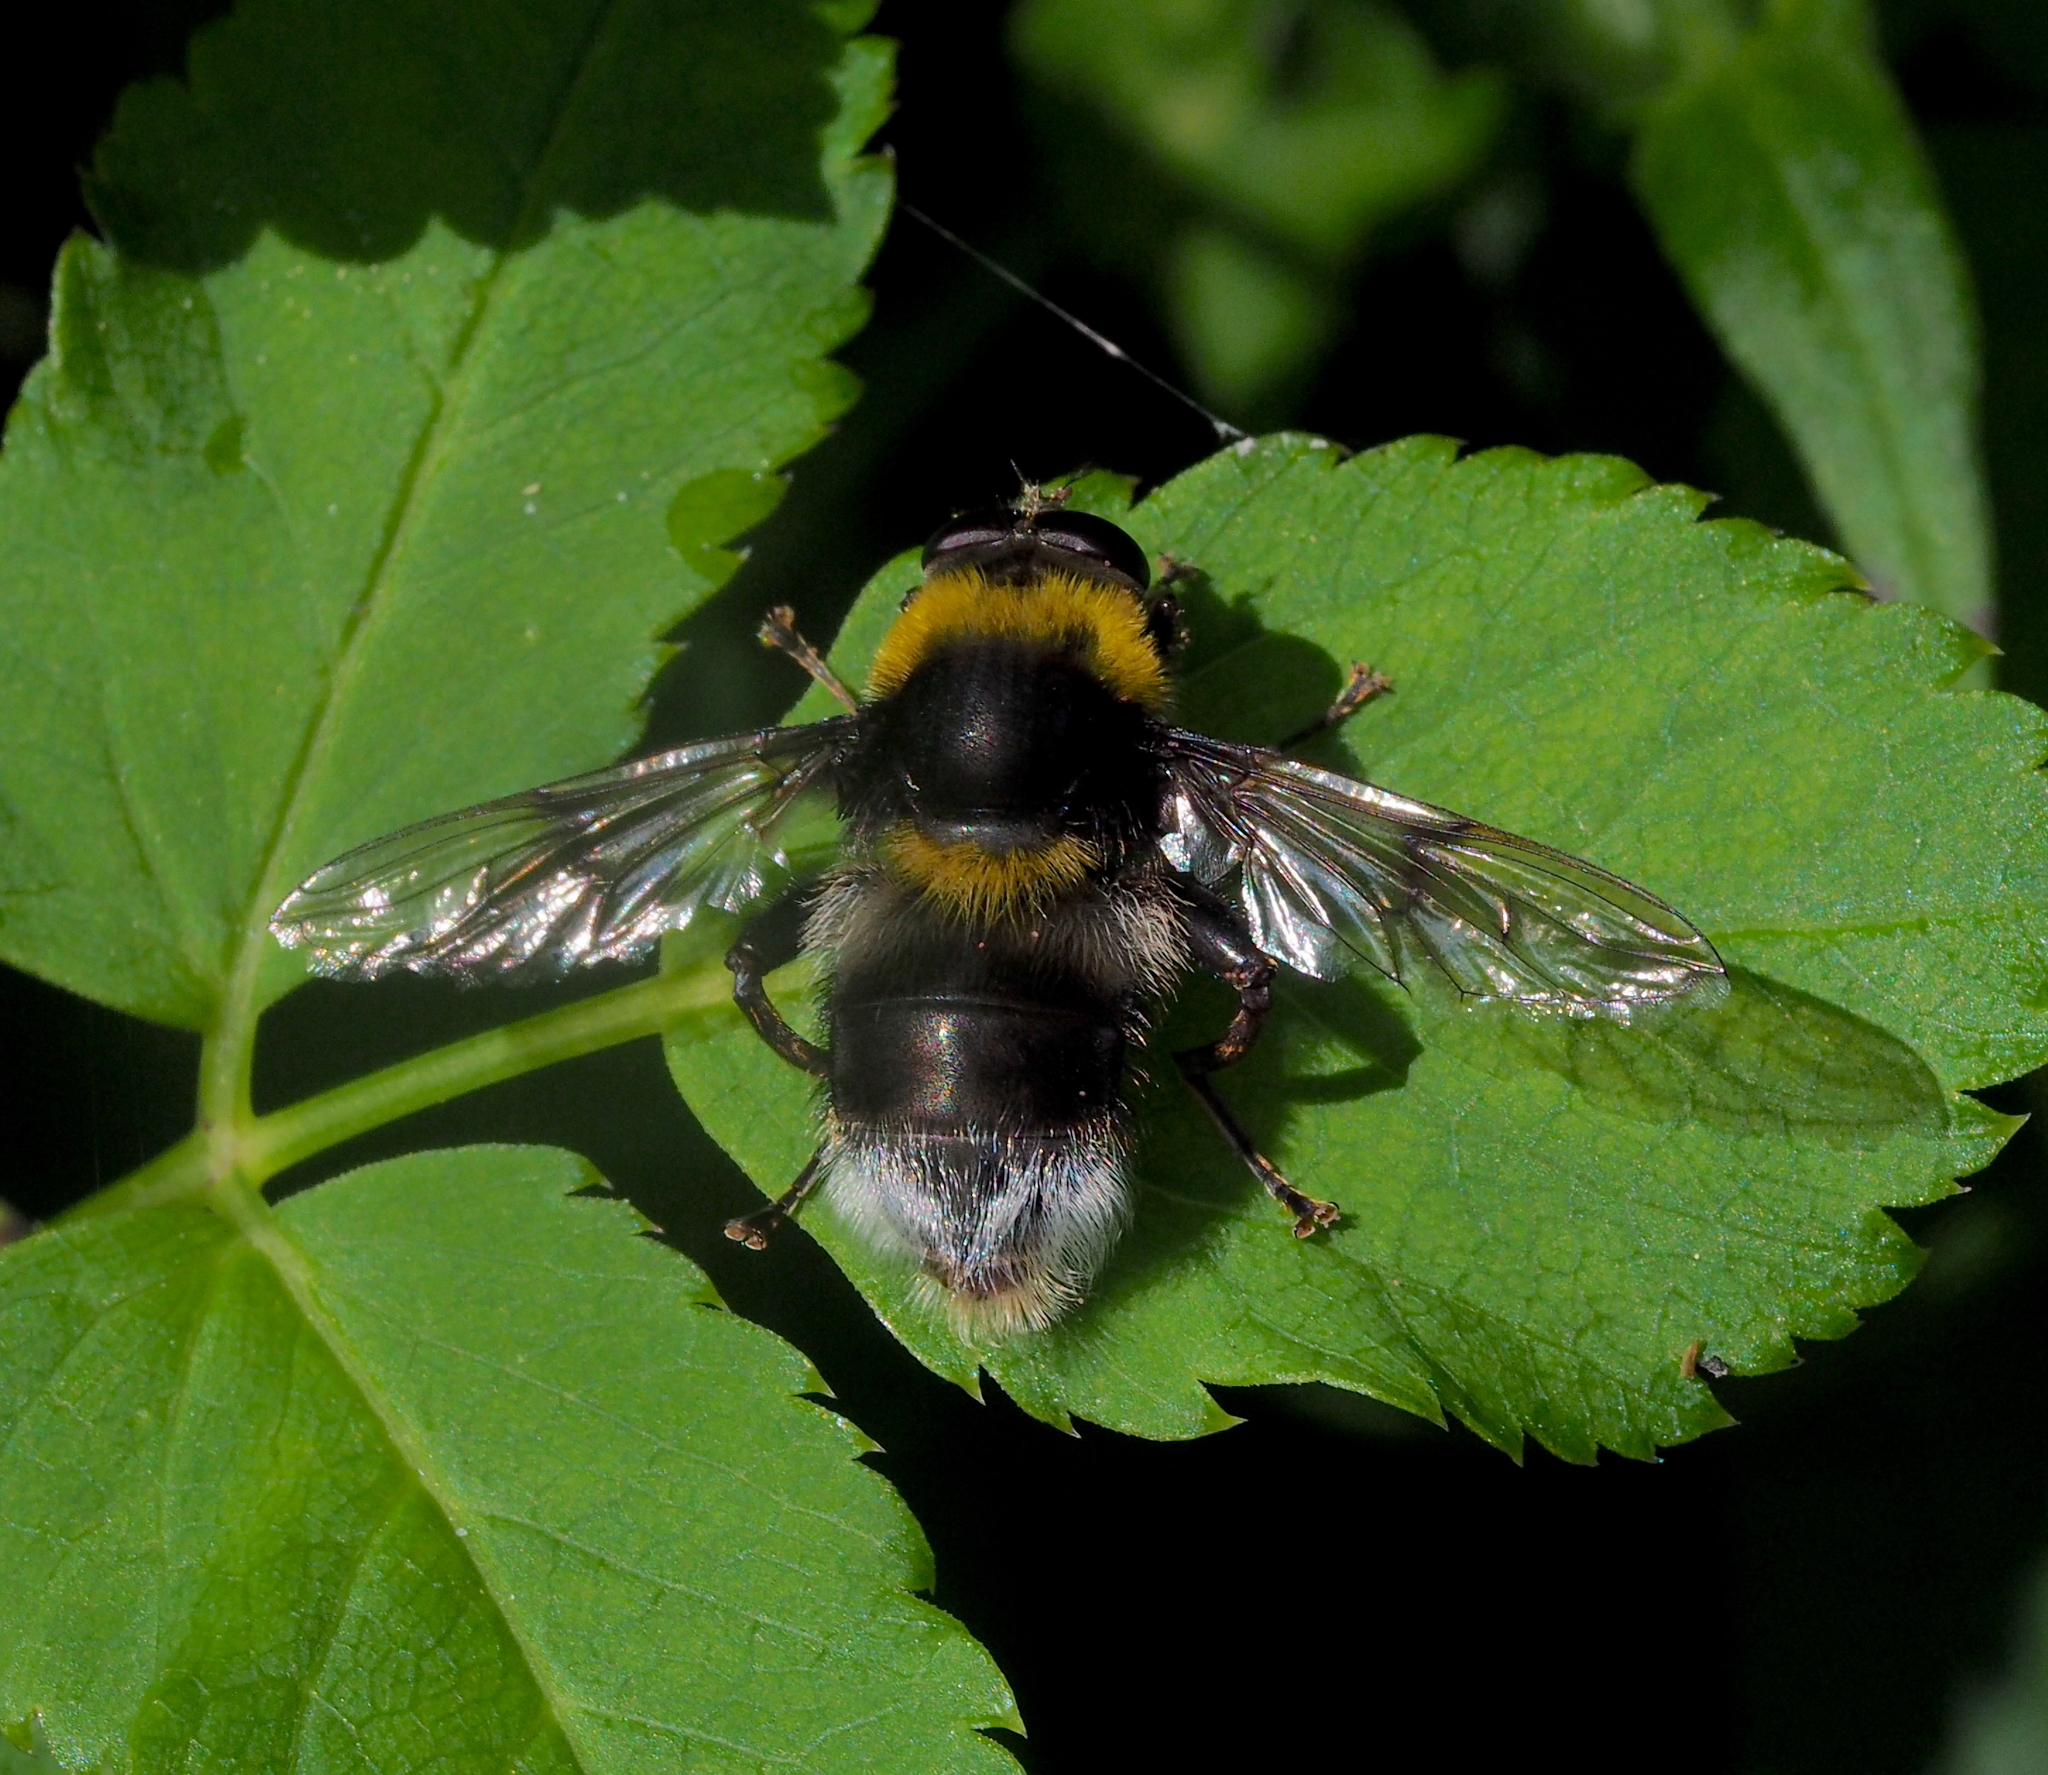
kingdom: Animalia
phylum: Arthropoda
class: Insecta
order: Diptera
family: Syrphidae
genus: Sericomyia
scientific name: Sericomyia bombiformis
